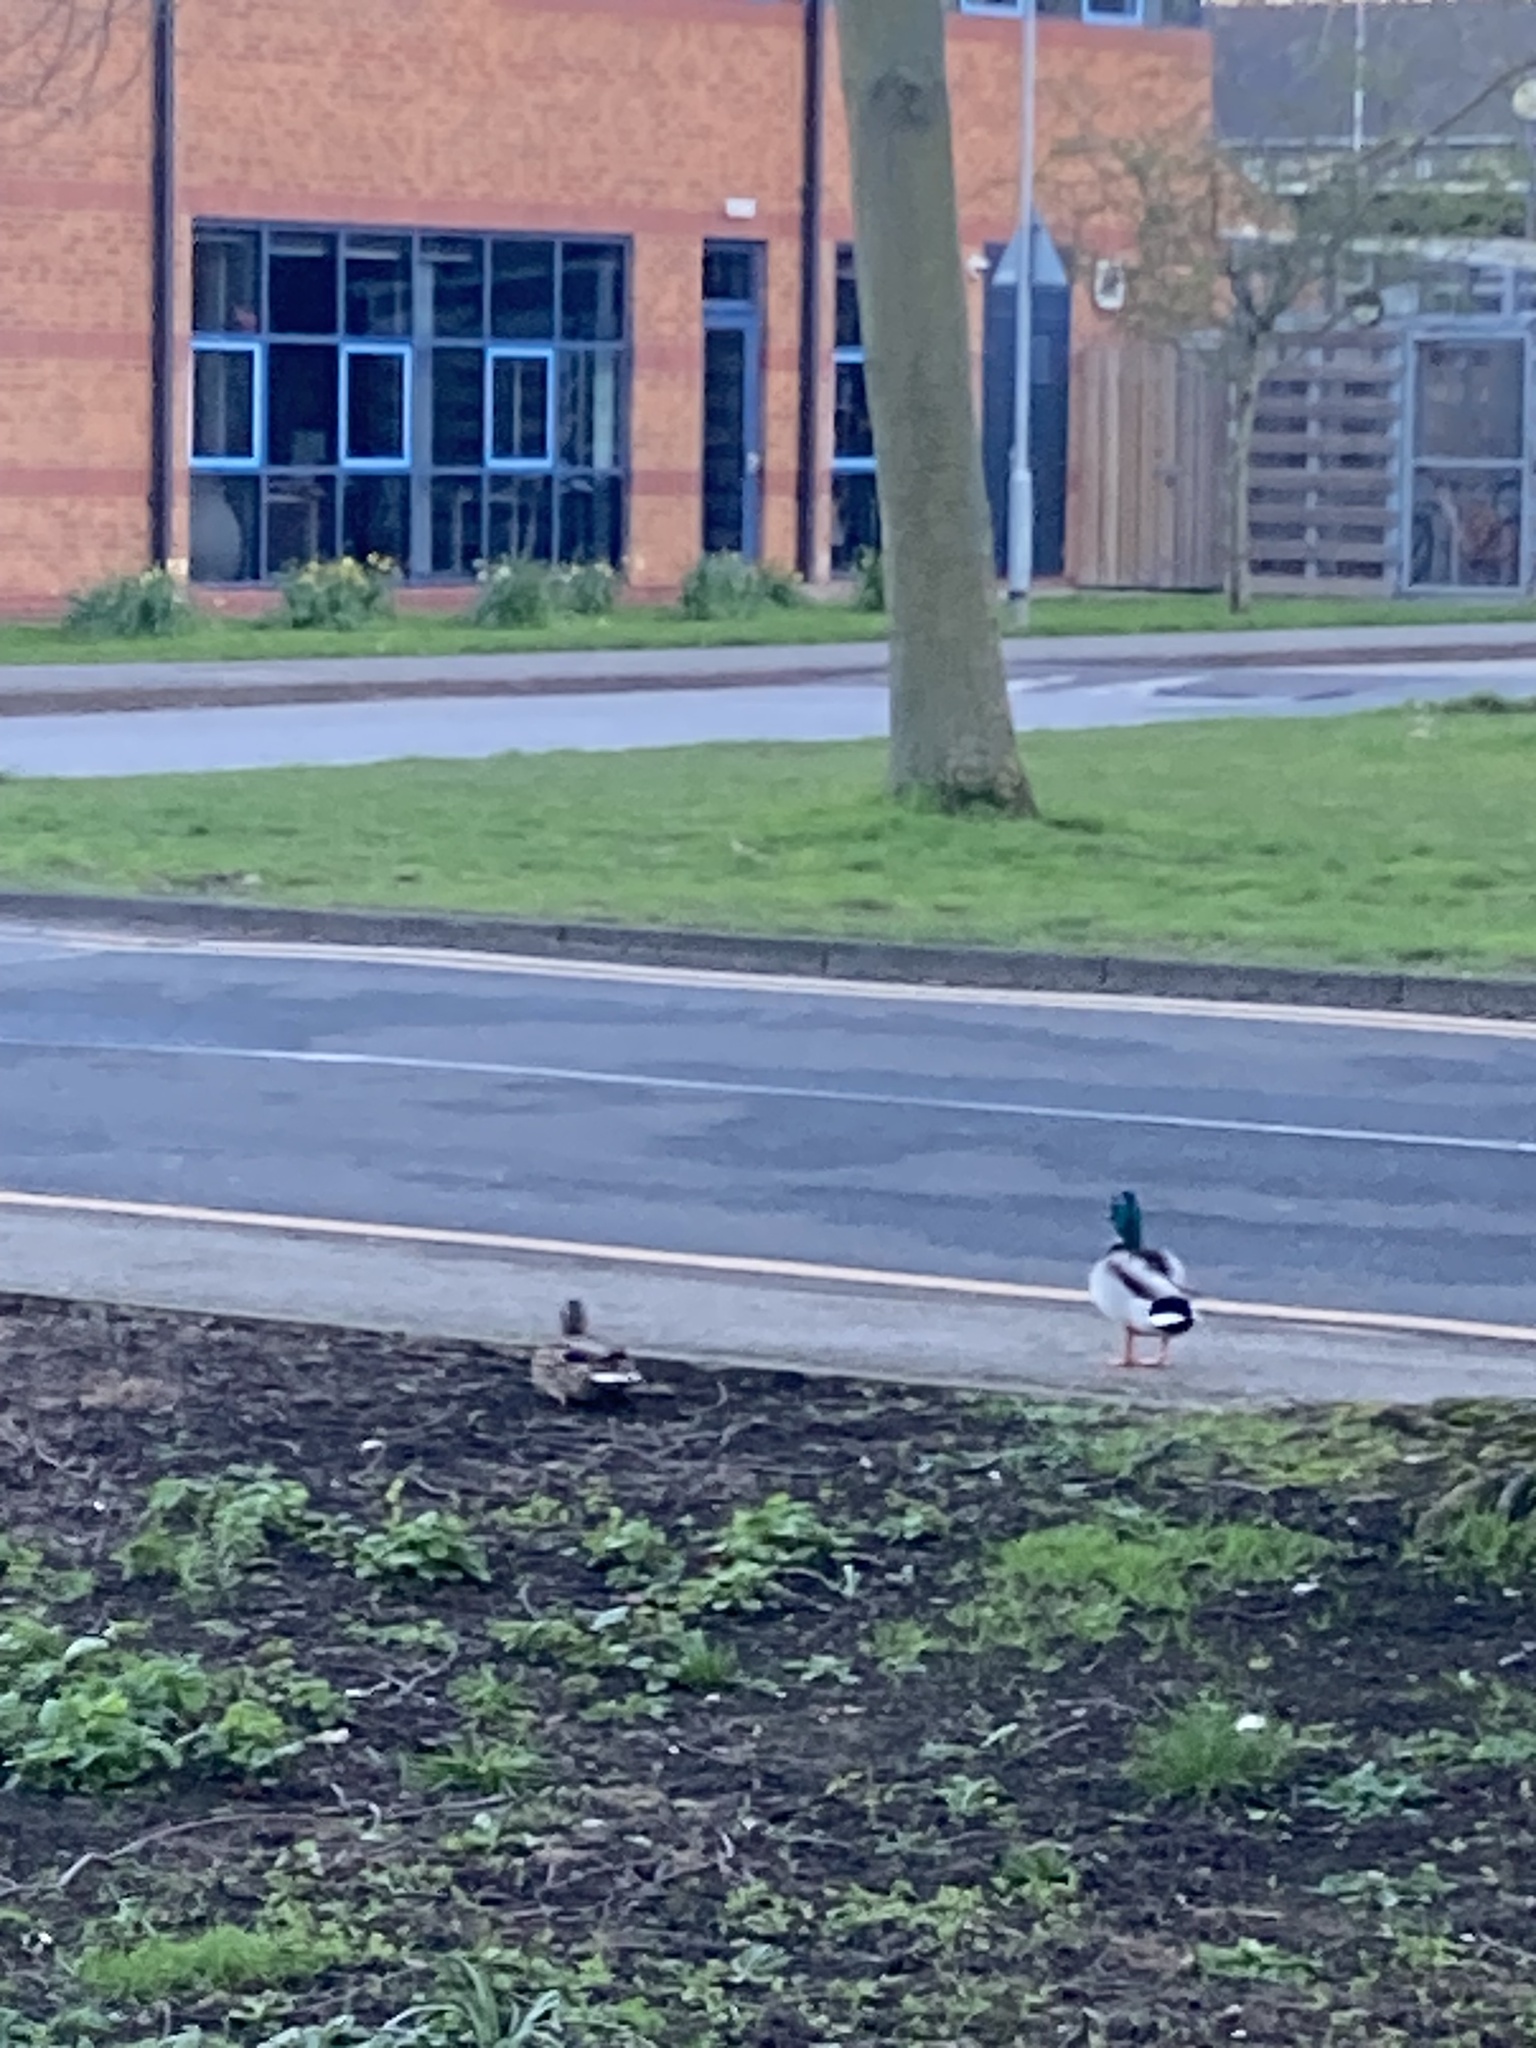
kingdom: Animalia
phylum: Chordata
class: Aves
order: Anseriformes
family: Anatidae
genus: Anas
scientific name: Anas platyrhynchos
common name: Mallard
